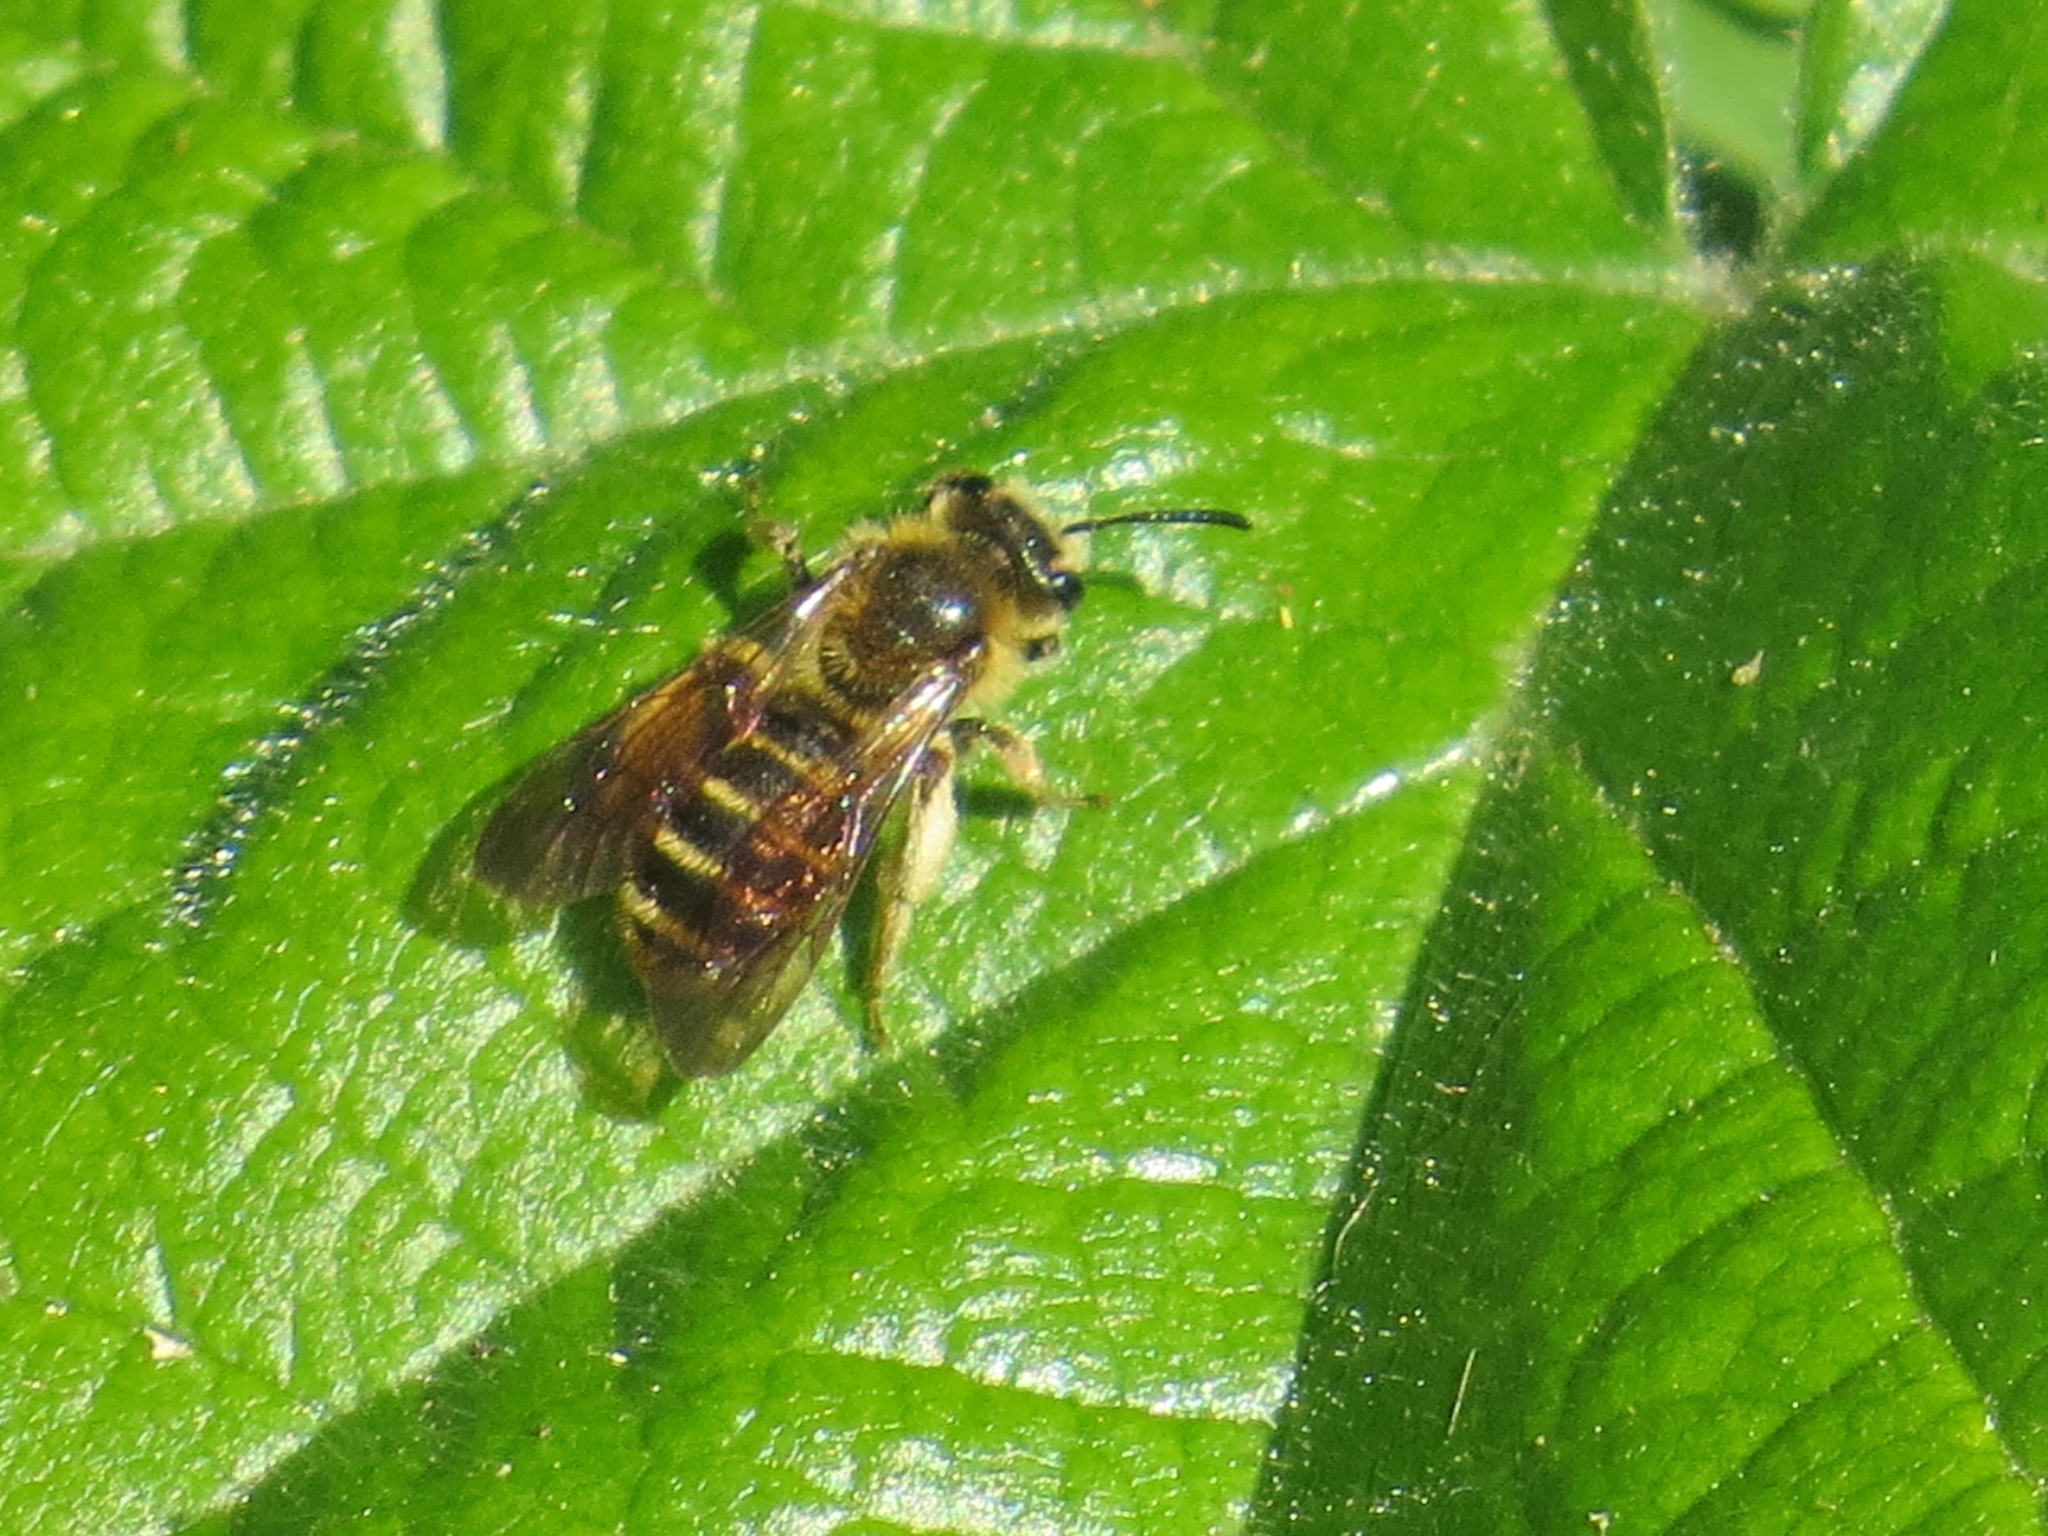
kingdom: Animalia
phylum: Arthropoda
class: Insecta
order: Hymenoptera
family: Andrenidae
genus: Andrena
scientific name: Andrena auricoma
